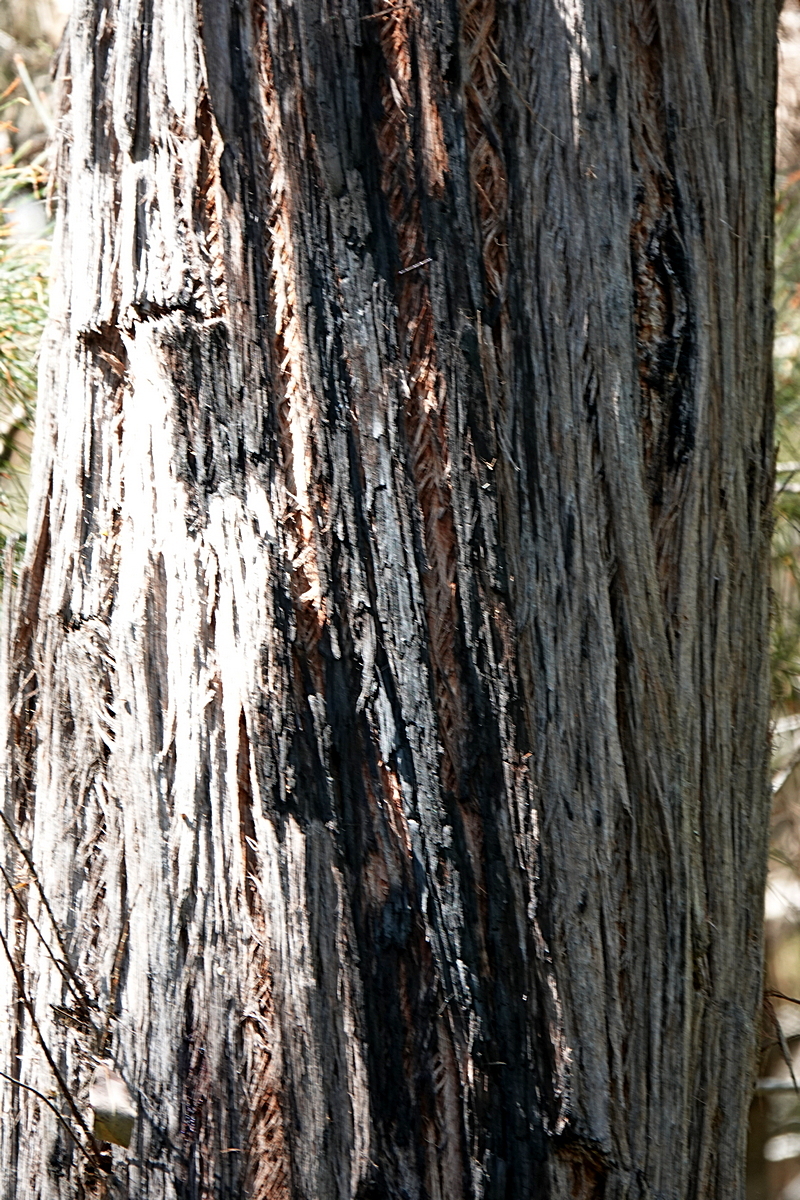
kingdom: Plantae
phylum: Tracheophyta
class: Magnoliopsida
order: Myrtales
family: Myrtaceae
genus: Eucalyptus
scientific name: Eucalyptus globoidea
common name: White-stringybark
